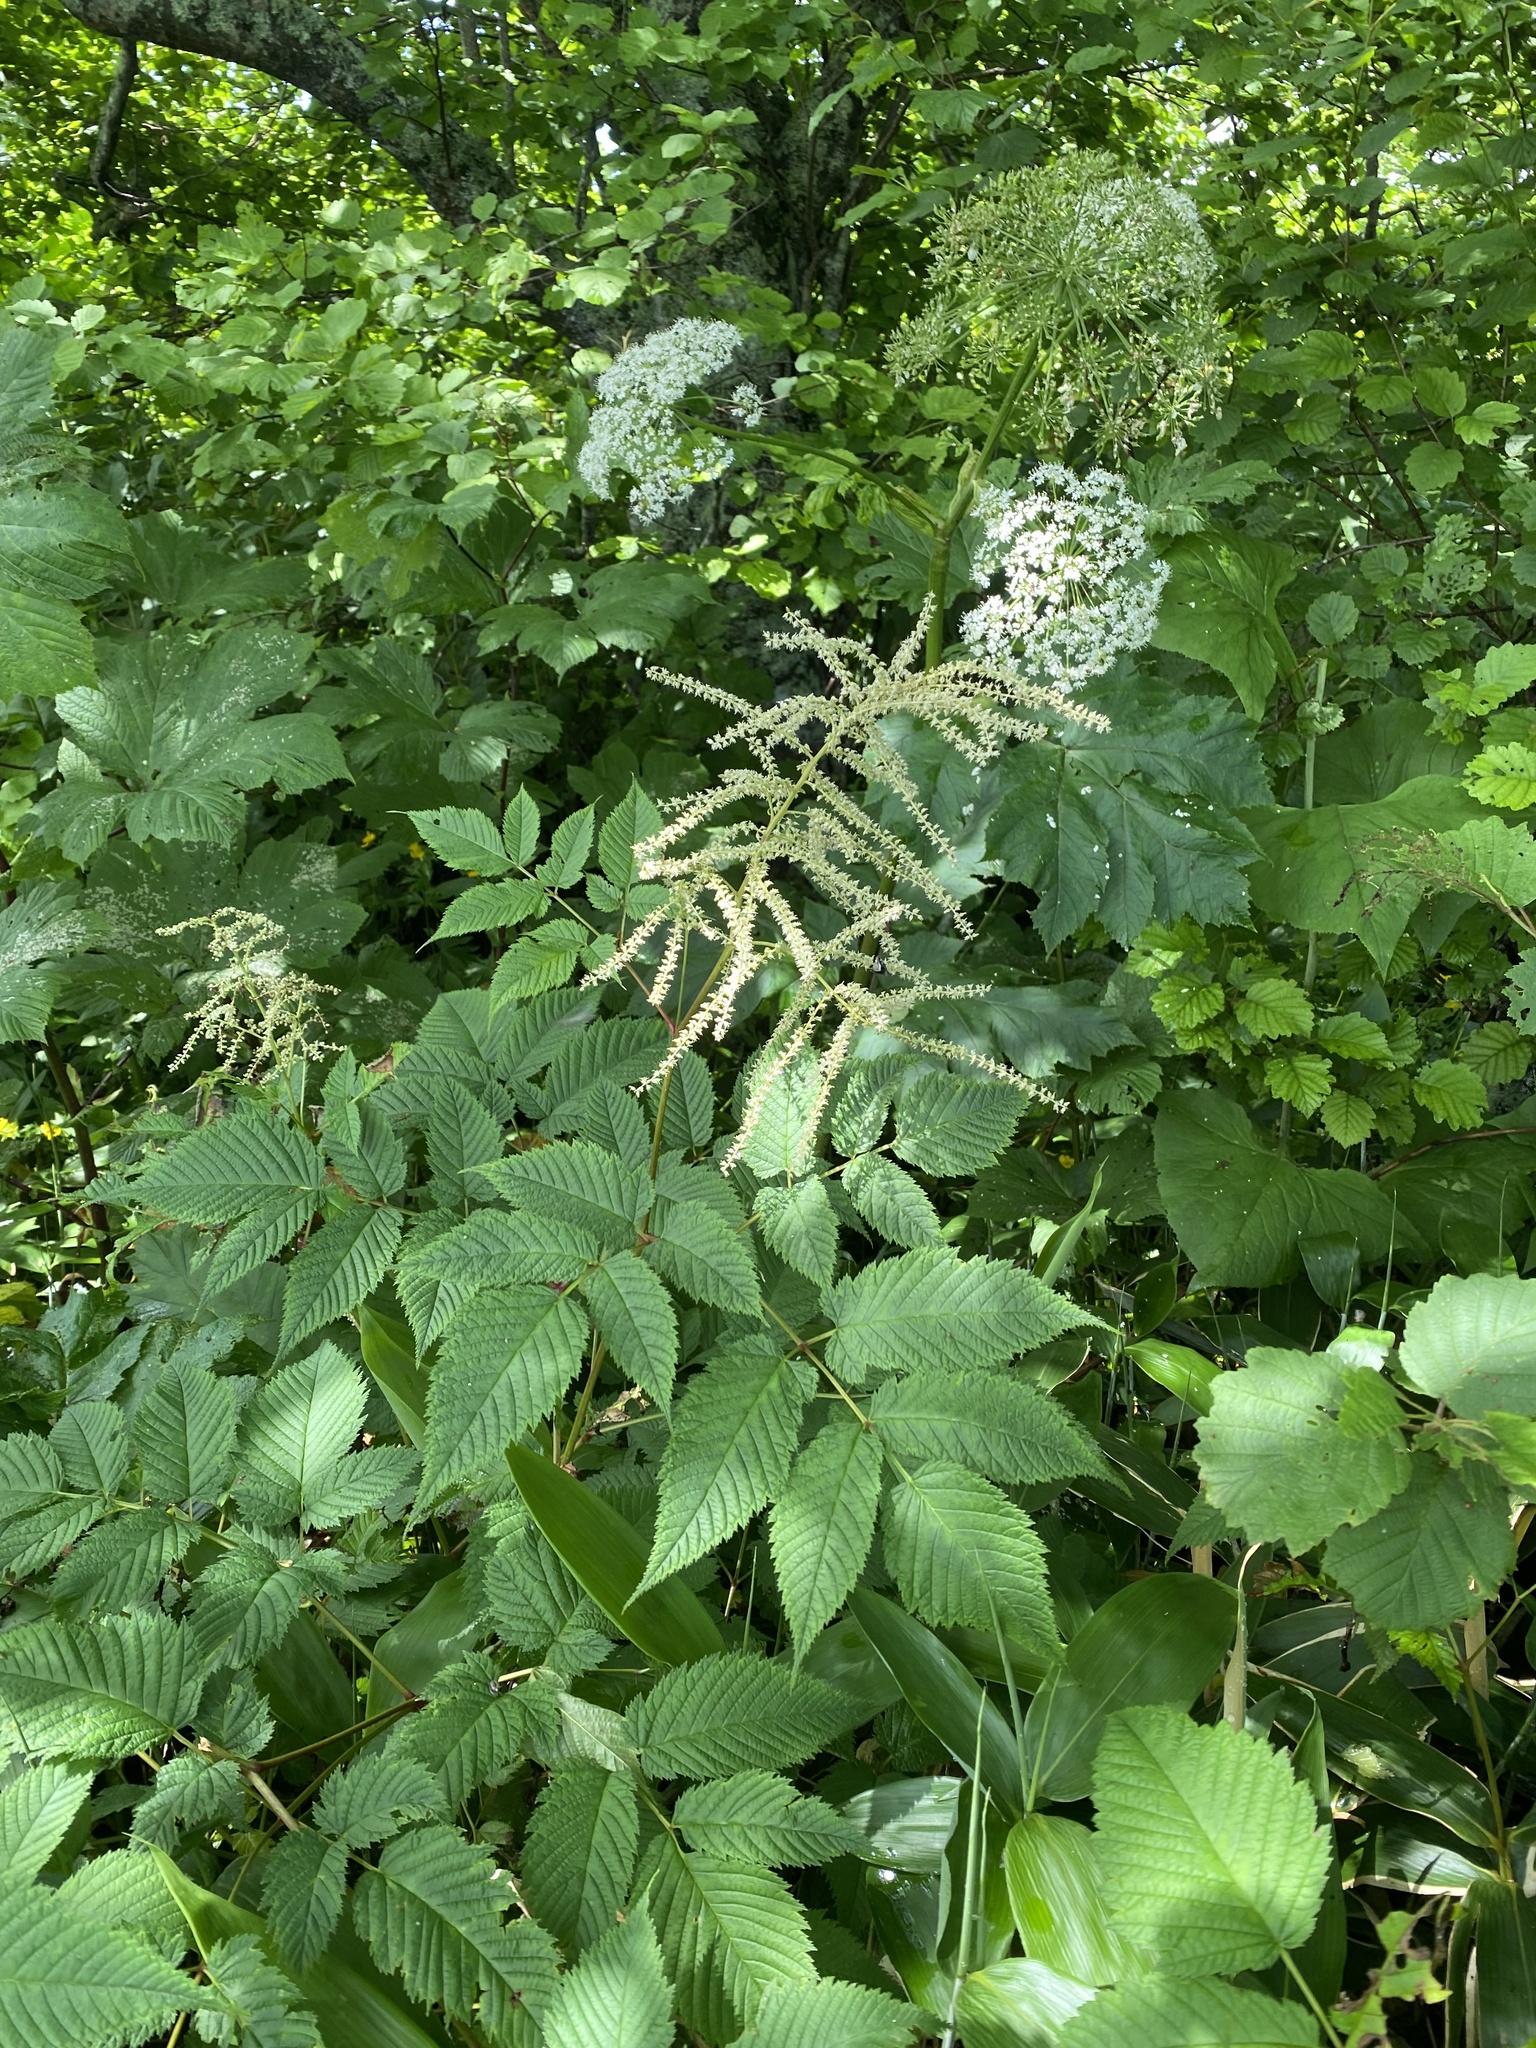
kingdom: Plantae
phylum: Tracheophyta
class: Magnoliopsida
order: Rosales
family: Rosaceae
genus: Aruncus
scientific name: Aruncus dioicus
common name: Buck's-beard
